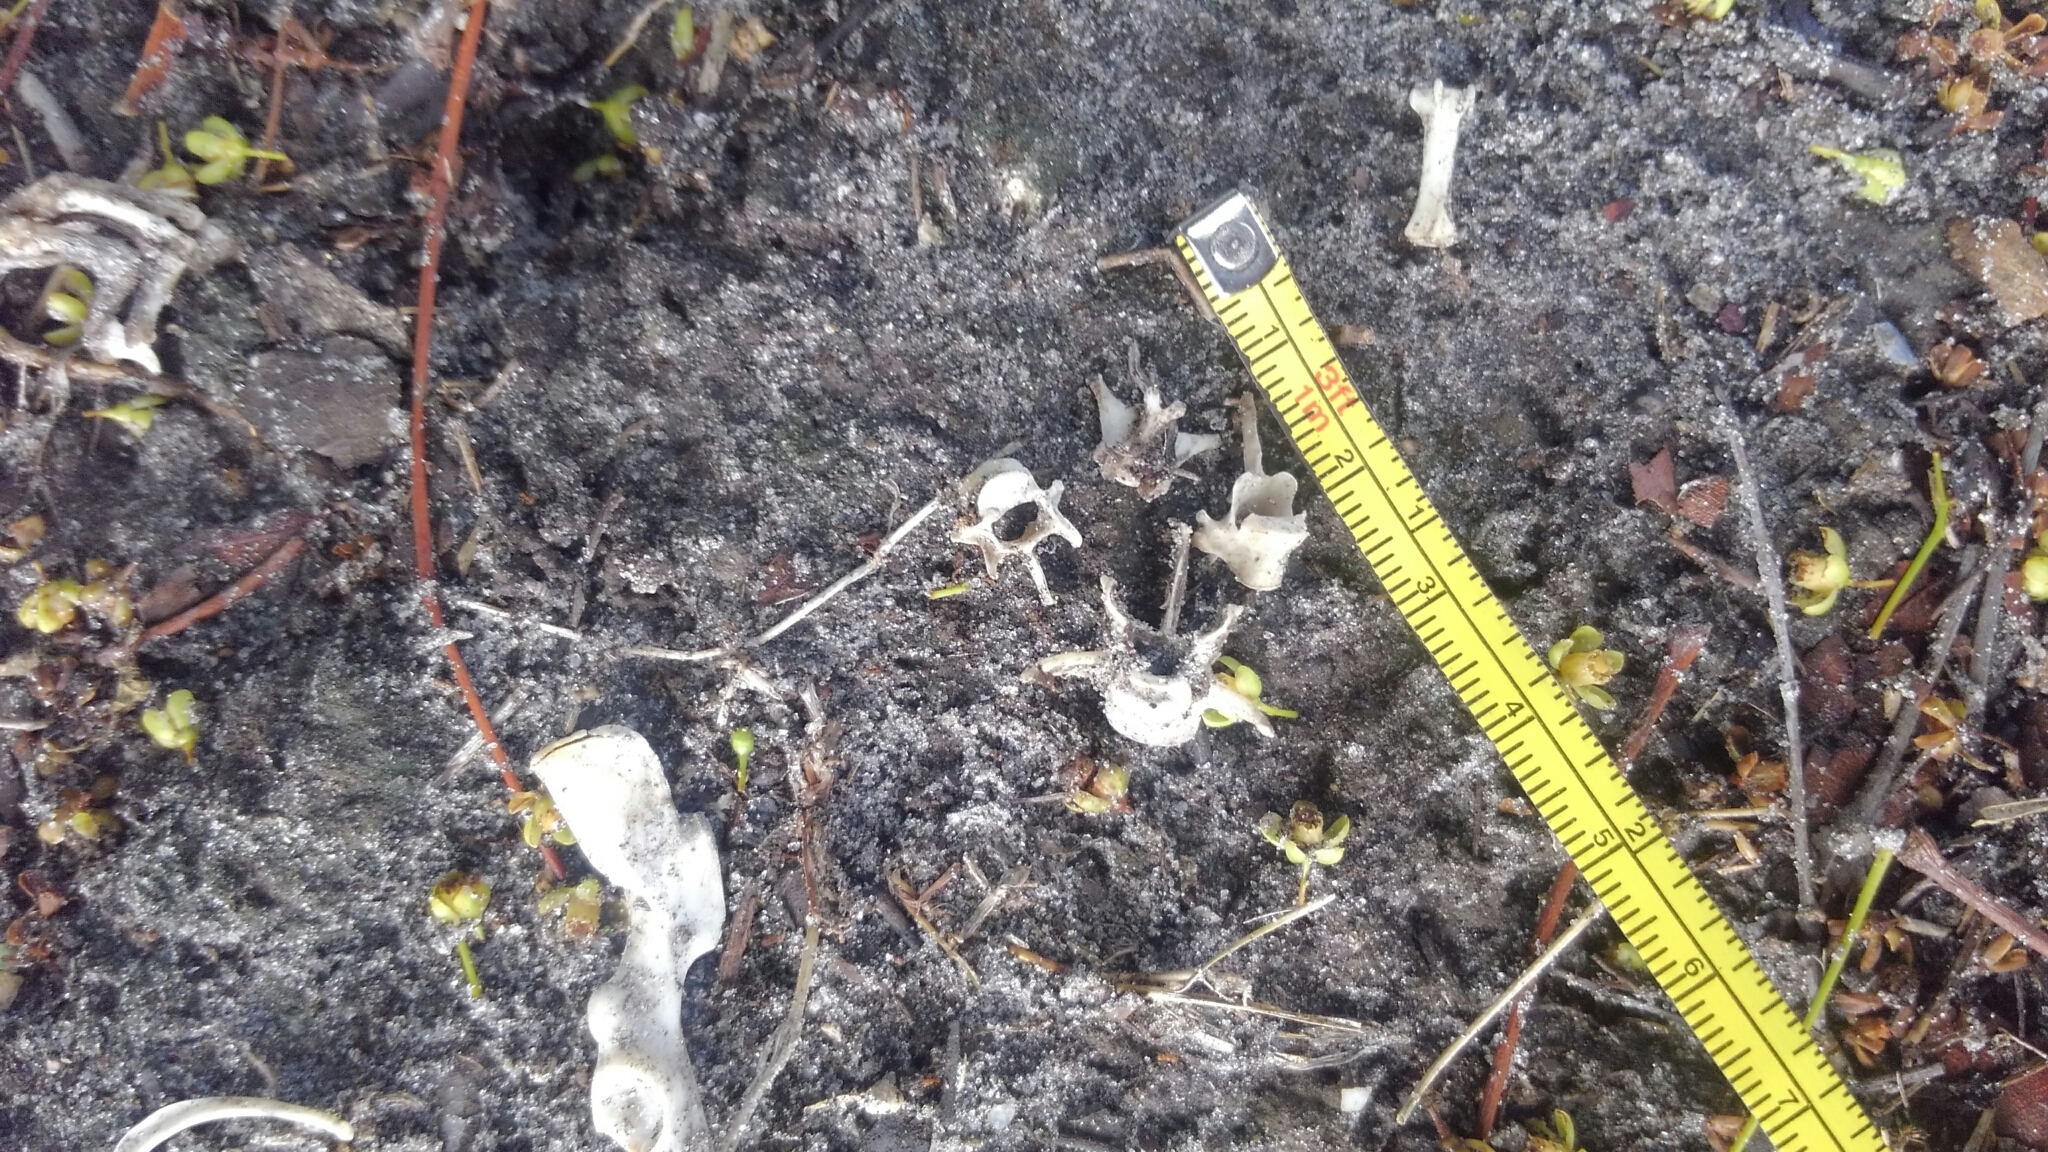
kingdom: Animalia
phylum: Chordata
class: Mammalia
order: Rodentia
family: Sciuridae
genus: Sciurus
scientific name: Sciurus carolinensis
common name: Eastern gray squirrel
